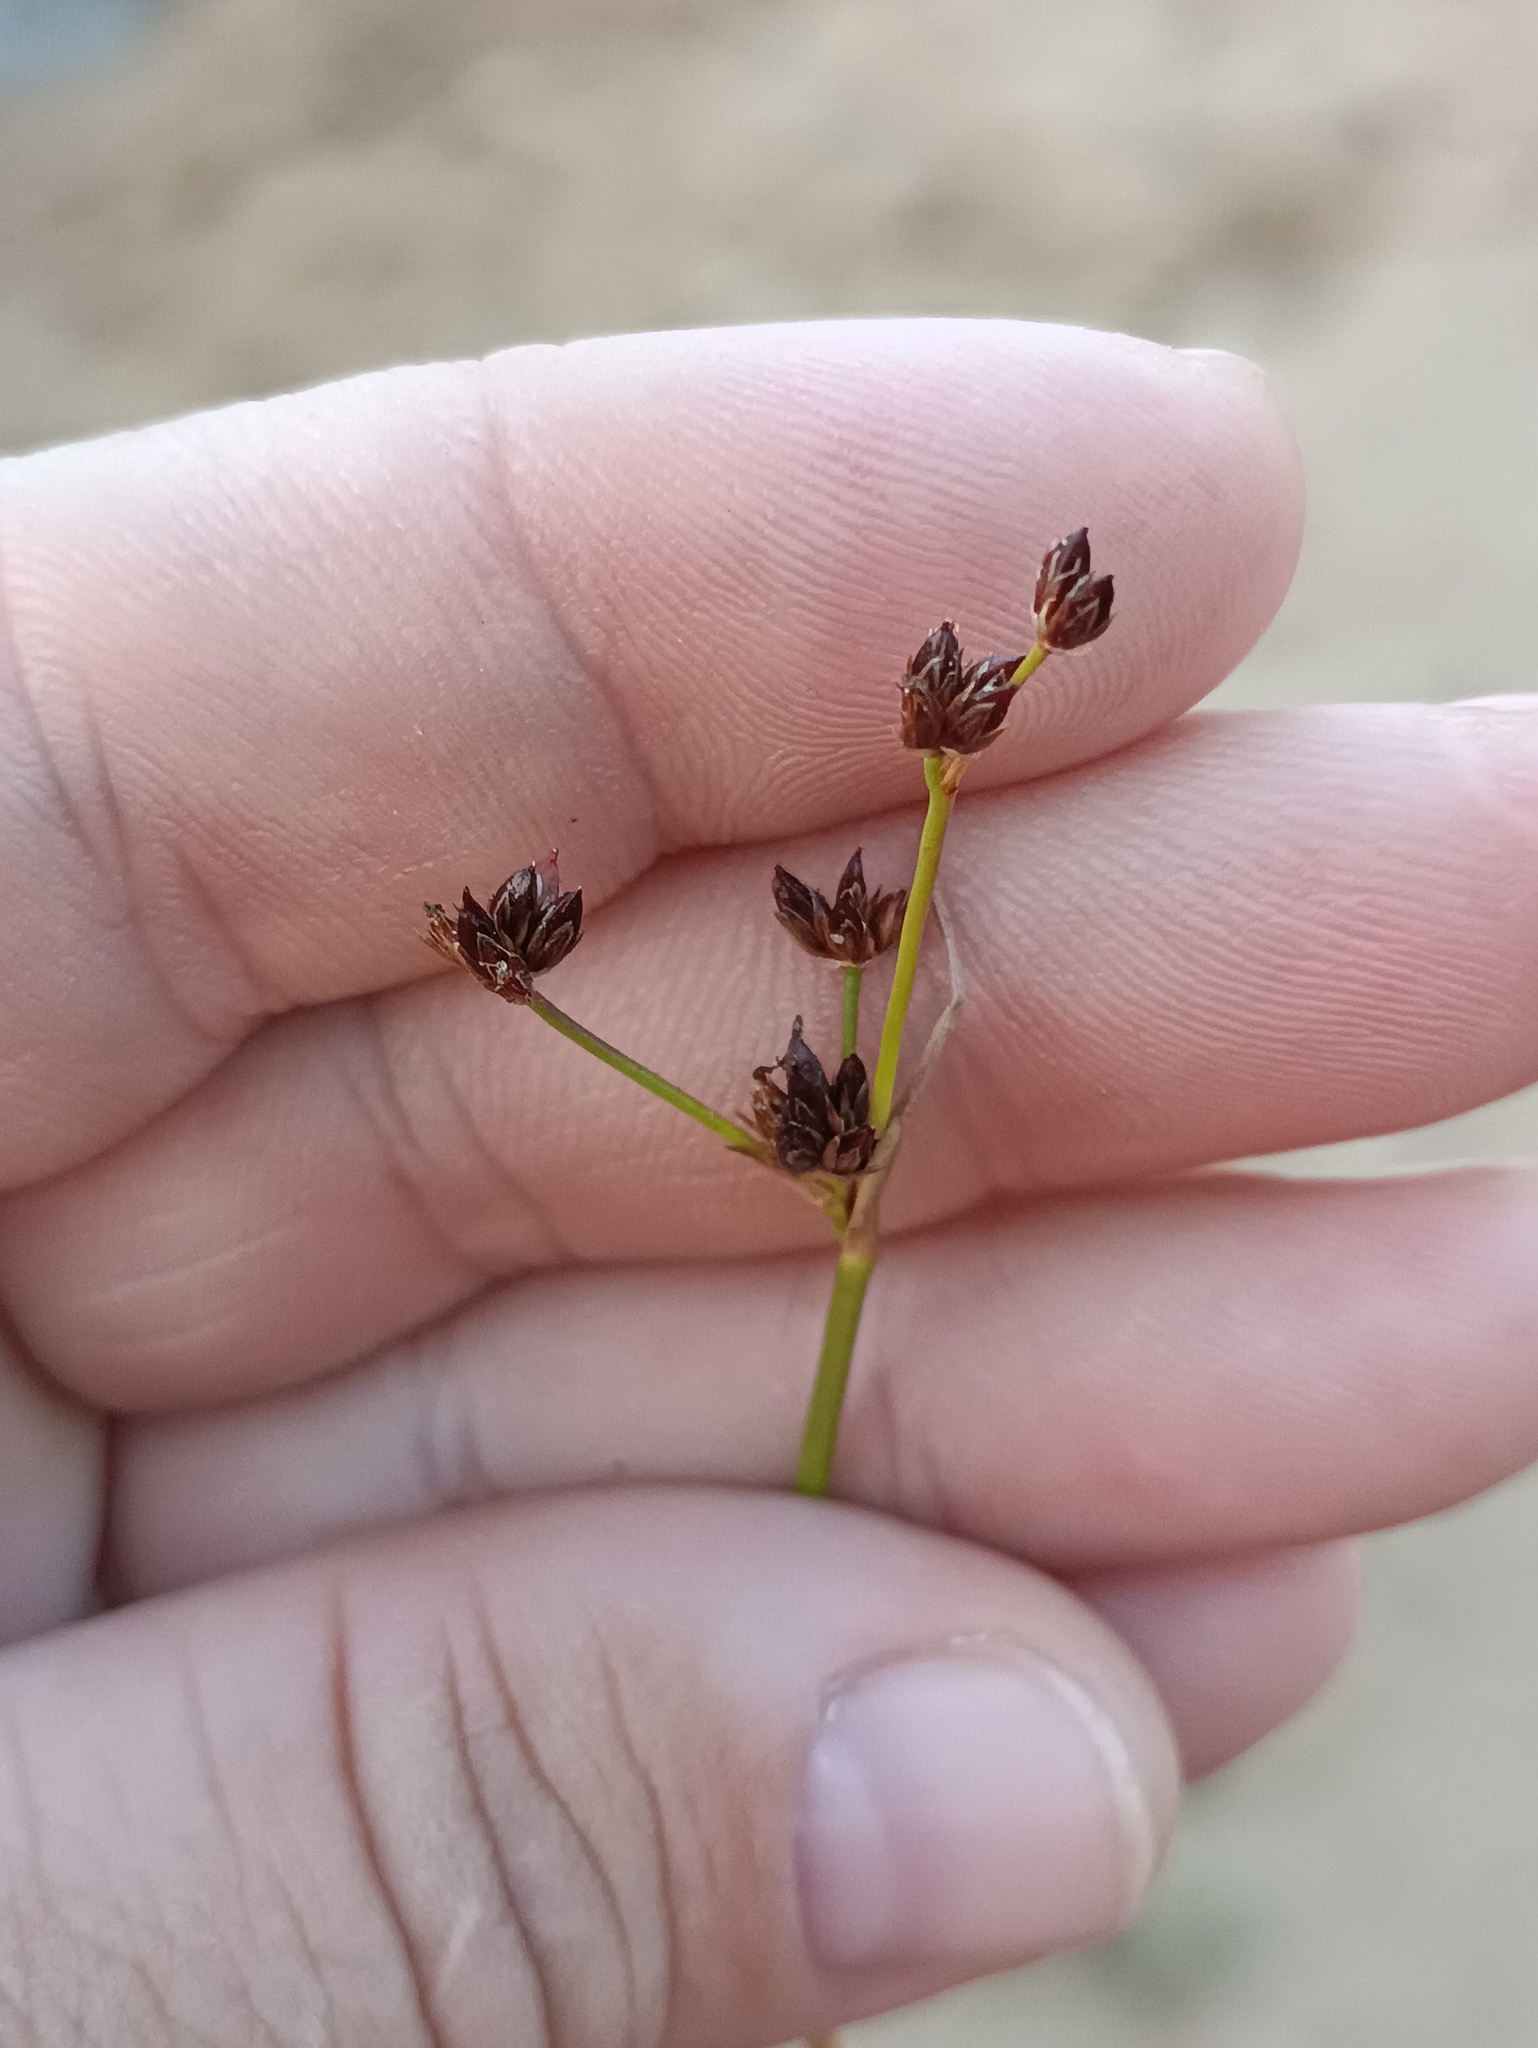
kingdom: Plantae
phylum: Tracheophyta
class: Liliopsida
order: Poales
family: Juncaceae
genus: Juncus
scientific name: Juncus articulatus
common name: Jointed rush
